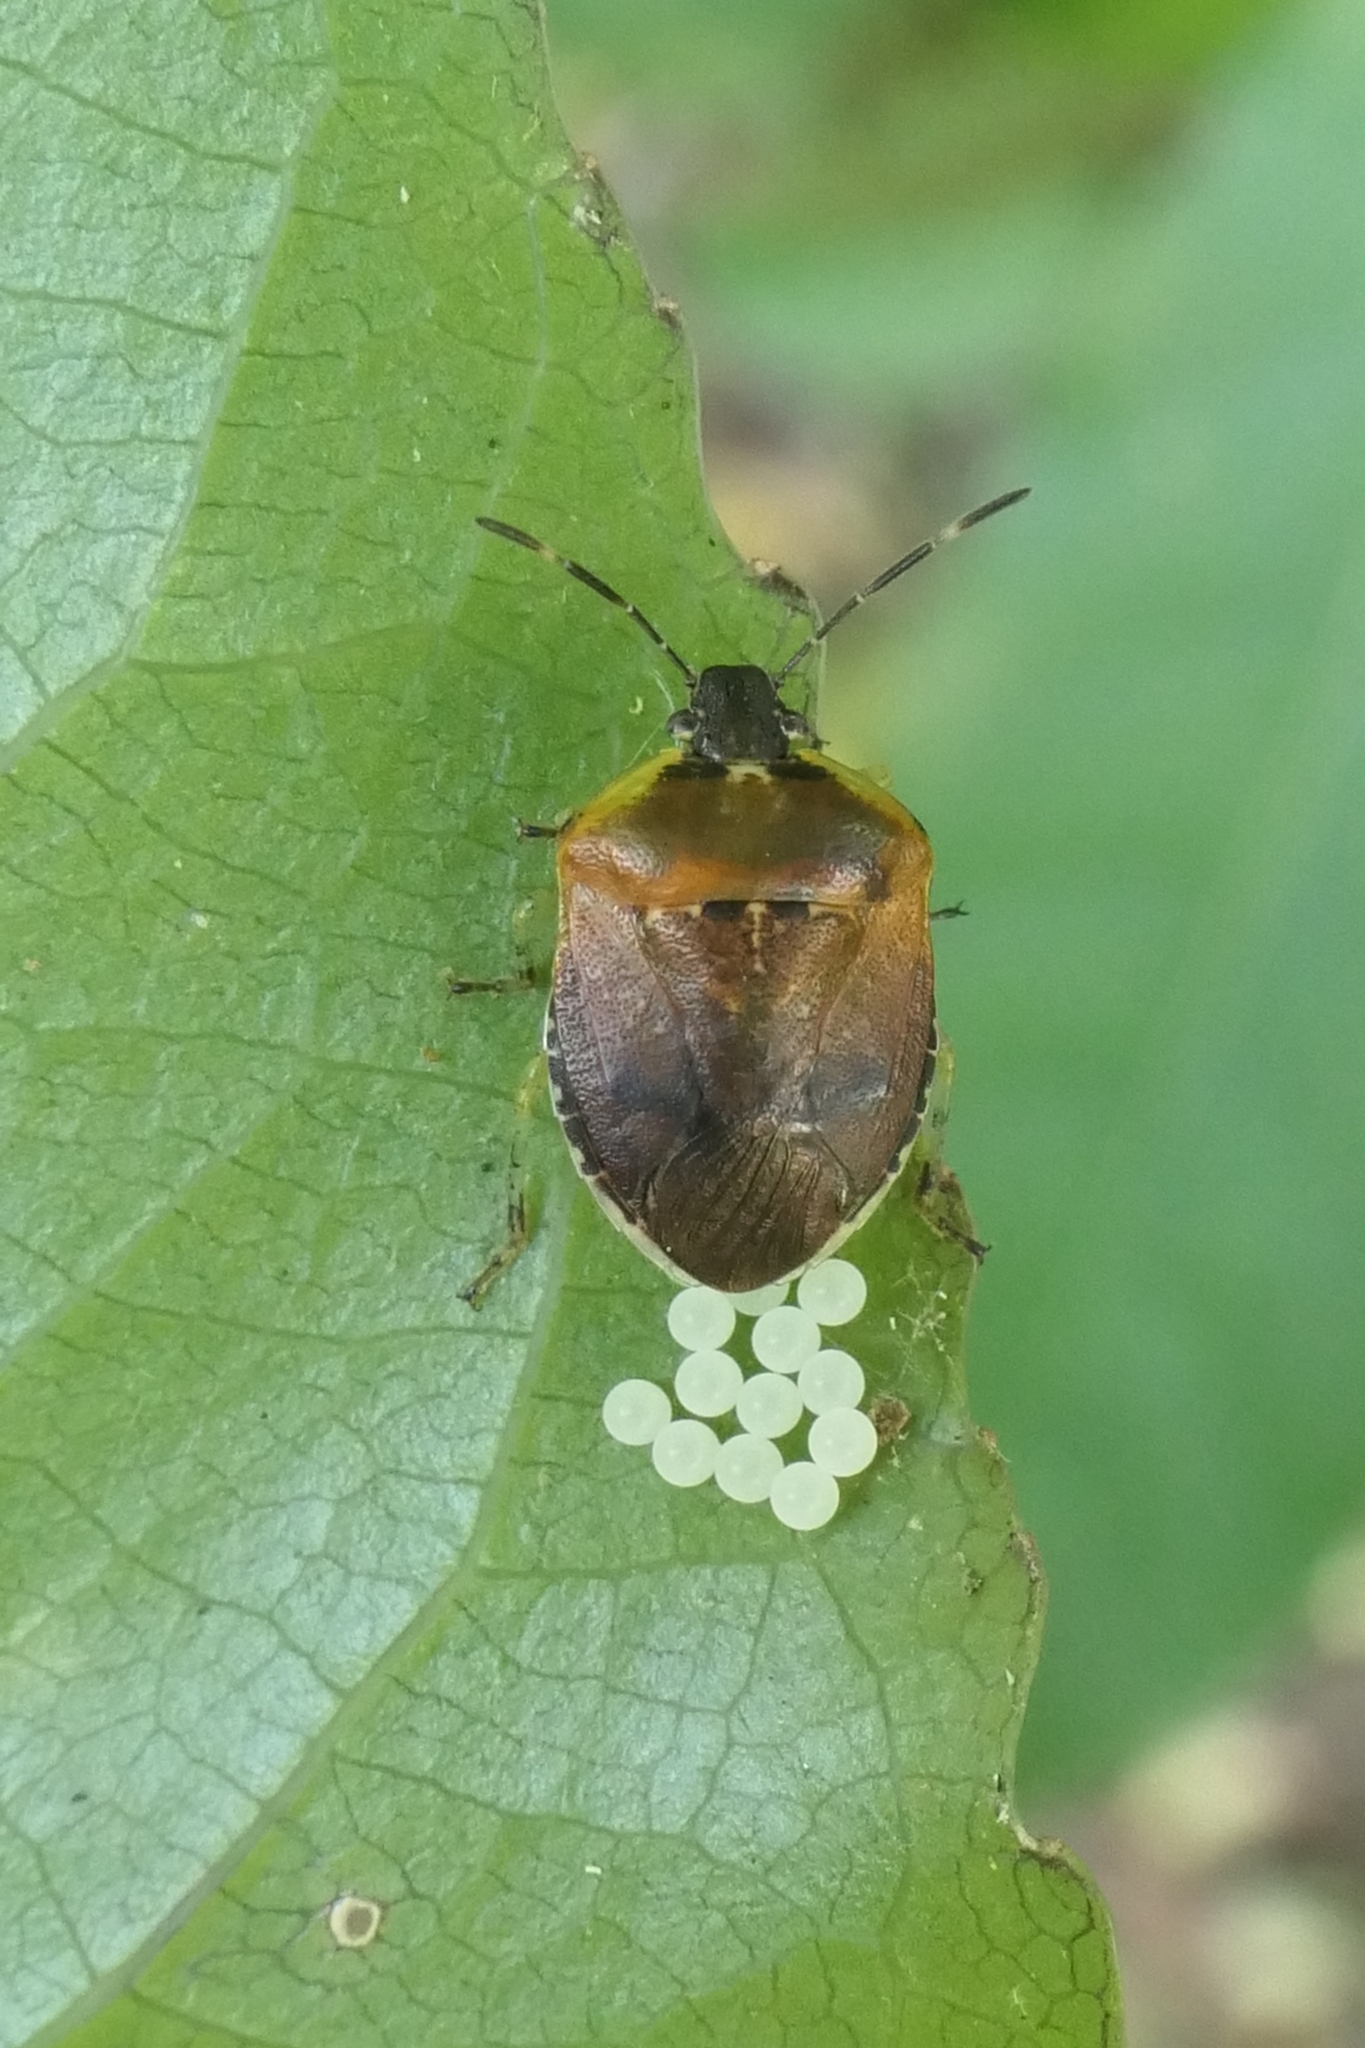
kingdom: Animalia
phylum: Arthropoda
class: Insecta
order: Hemiptera
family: Pentatomidae
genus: Monteithiella
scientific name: Monteithiella
